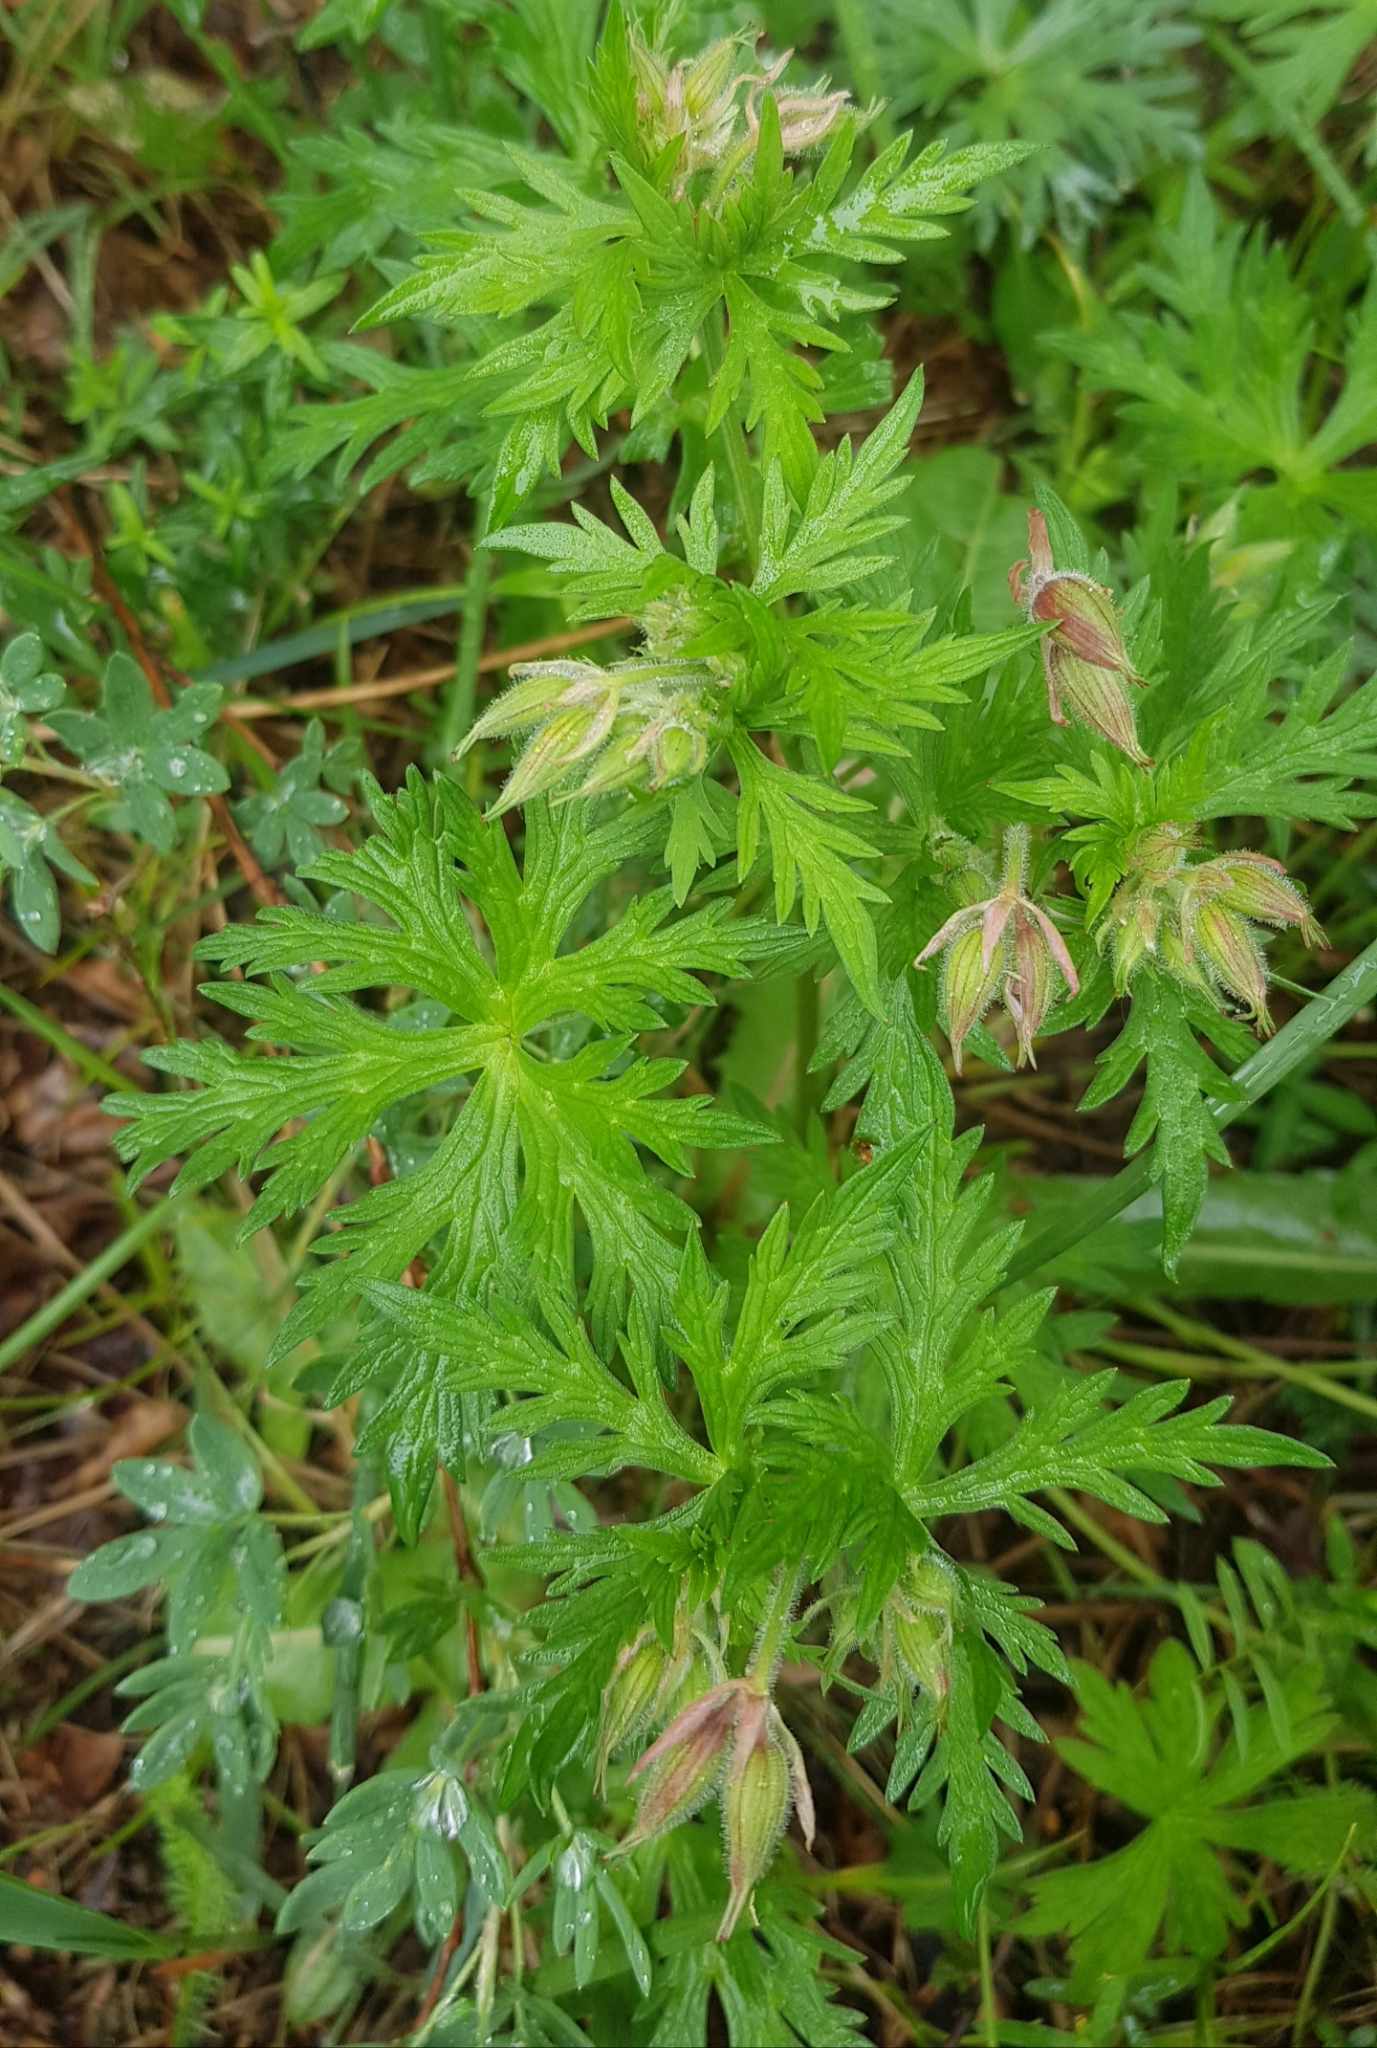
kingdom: Plantae
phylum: Tracheophyta
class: Magnoliopsida
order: Geraniales
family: Geraniaceae
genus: Geranium
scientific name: Geranium pratense
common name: Meadow crane's-bill
